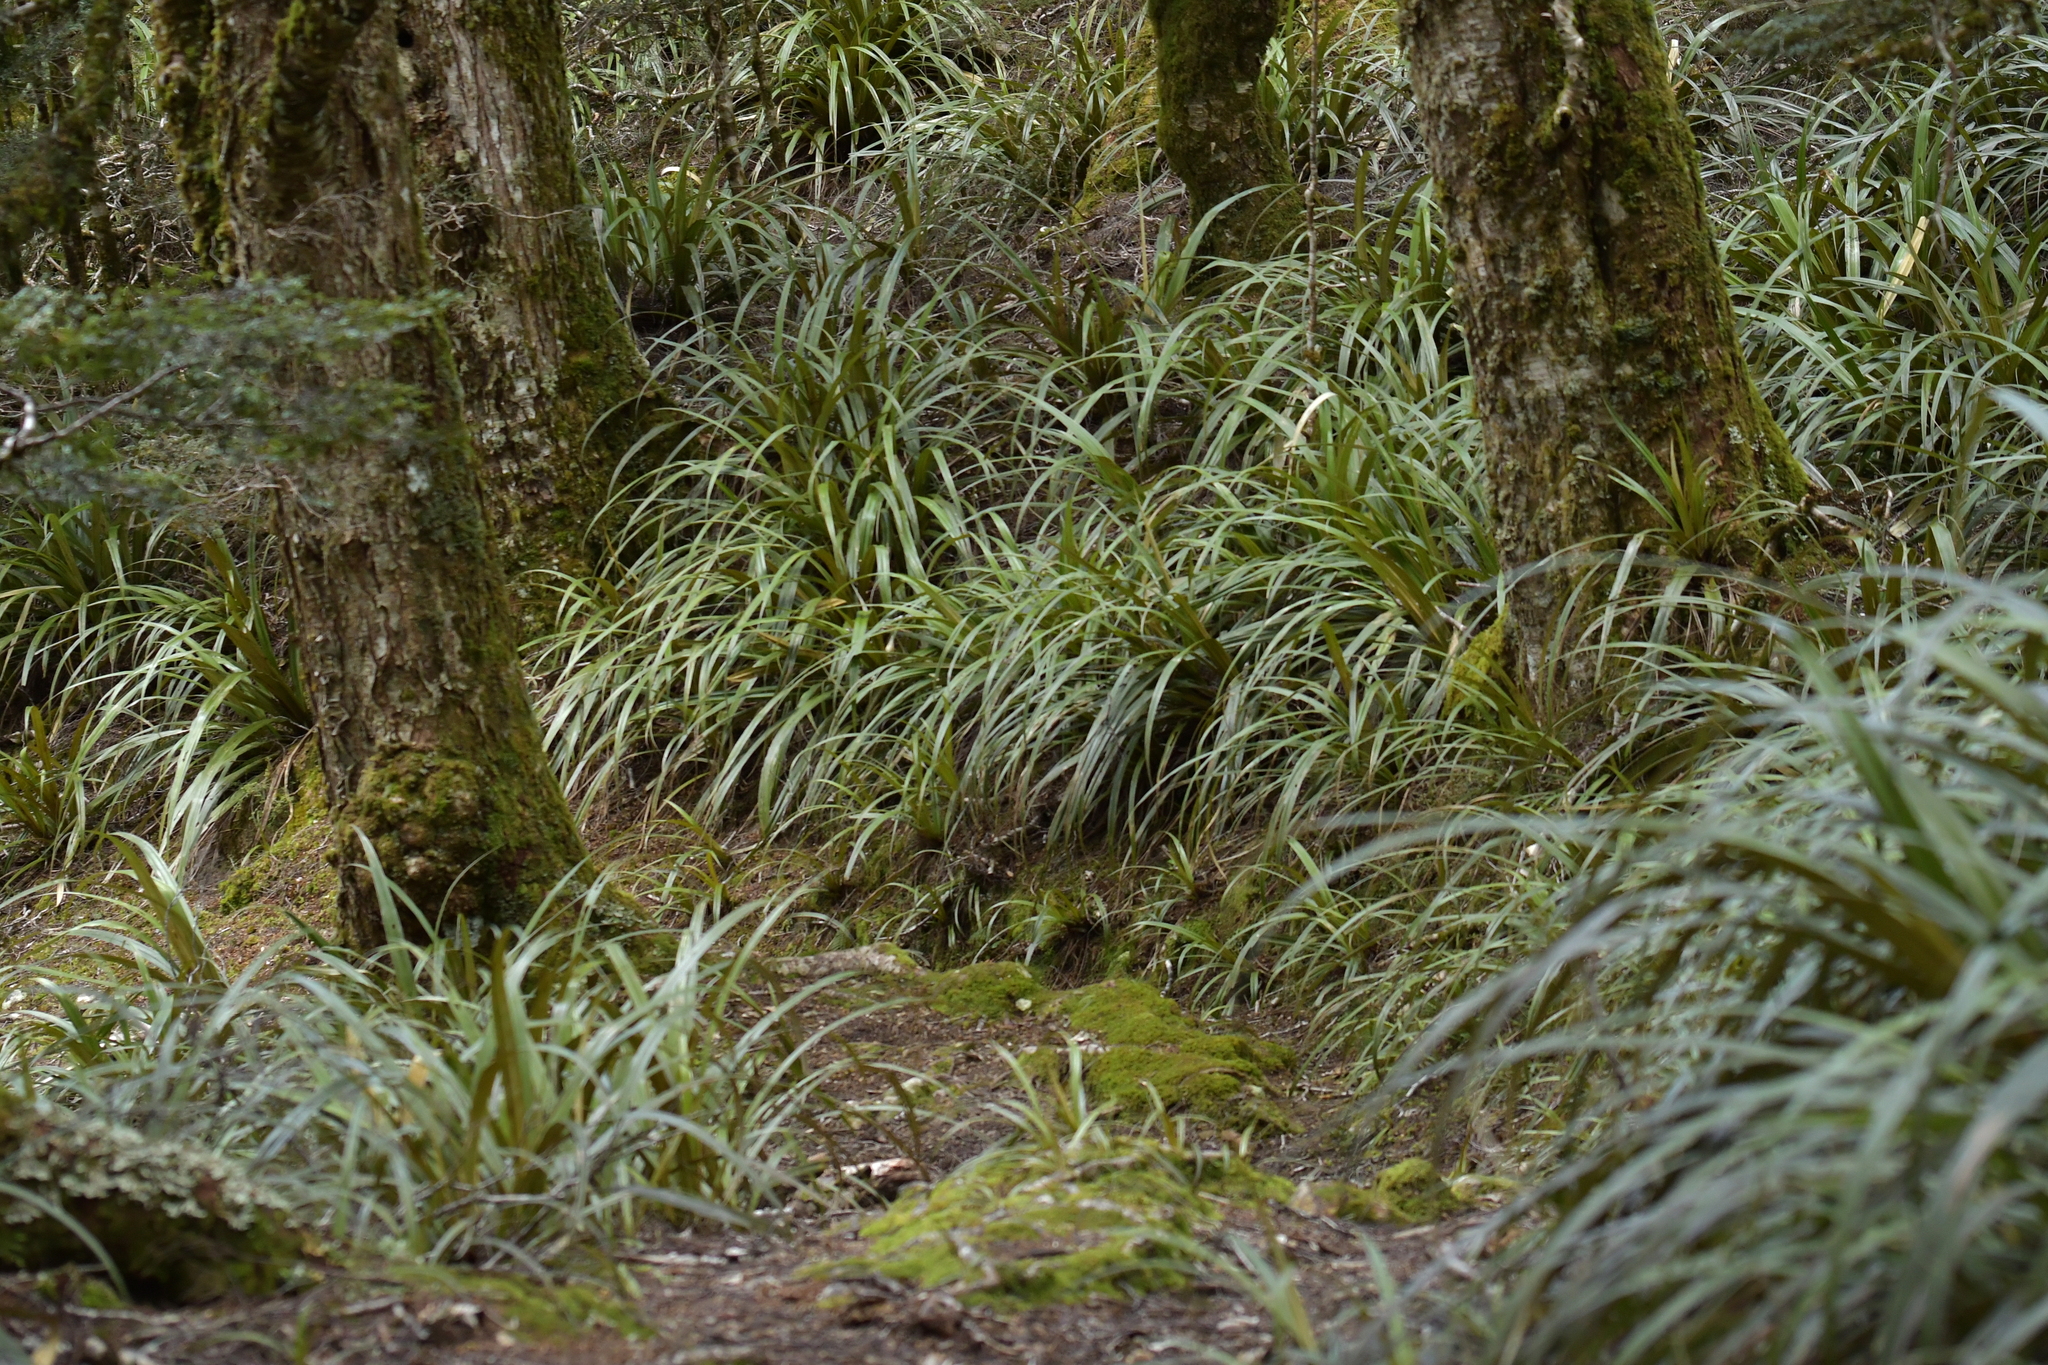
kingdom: Plantae
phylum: Tracheophyta
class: Liliopsida
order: Asparagales
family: Asteliaceae
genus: Astelia
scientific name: Astelia fragrans
